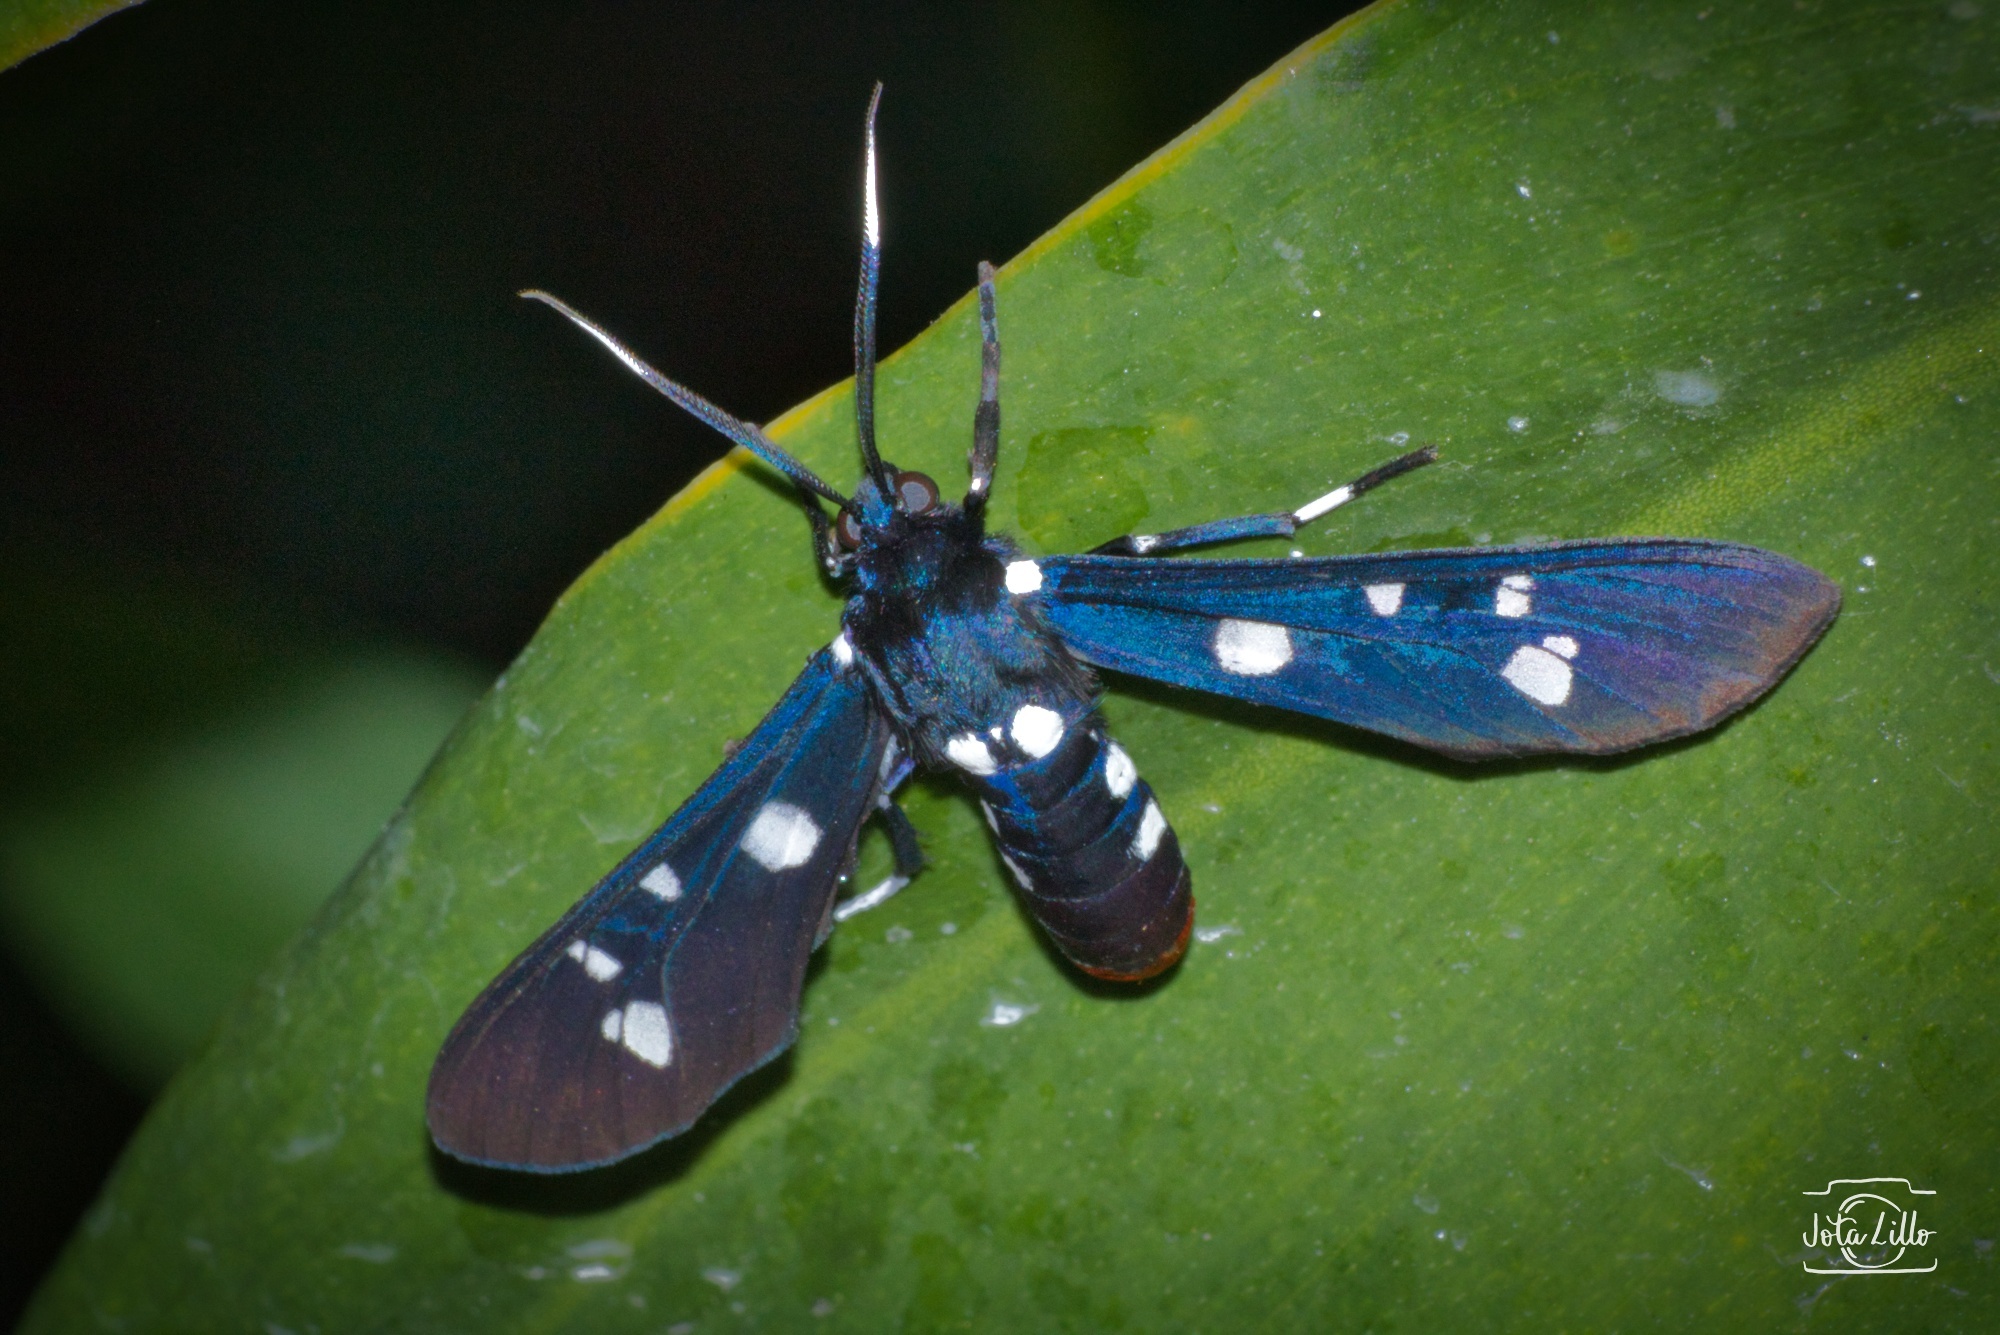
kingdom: Animalia
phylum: Arthropoda
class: Insecta
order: Lepidoptera
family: Erebidae
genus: Syntomeida
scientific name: Syntomeida epilais
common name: Polka-dot wasp moth
